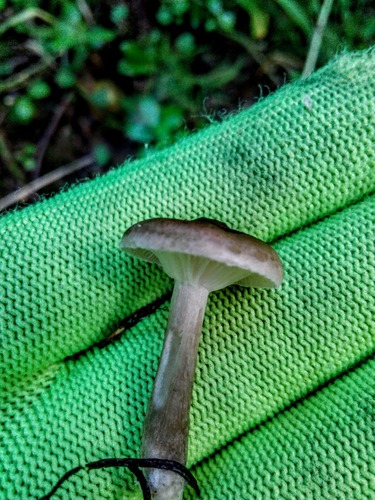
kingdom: Fungi
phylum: Basidiomycota
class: Agaricomycetes
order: Agaricales
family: Hygrophoraceae
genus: Ampulloclitocybe
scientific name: Ampulloclitocybe clavipes
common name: Club foot
